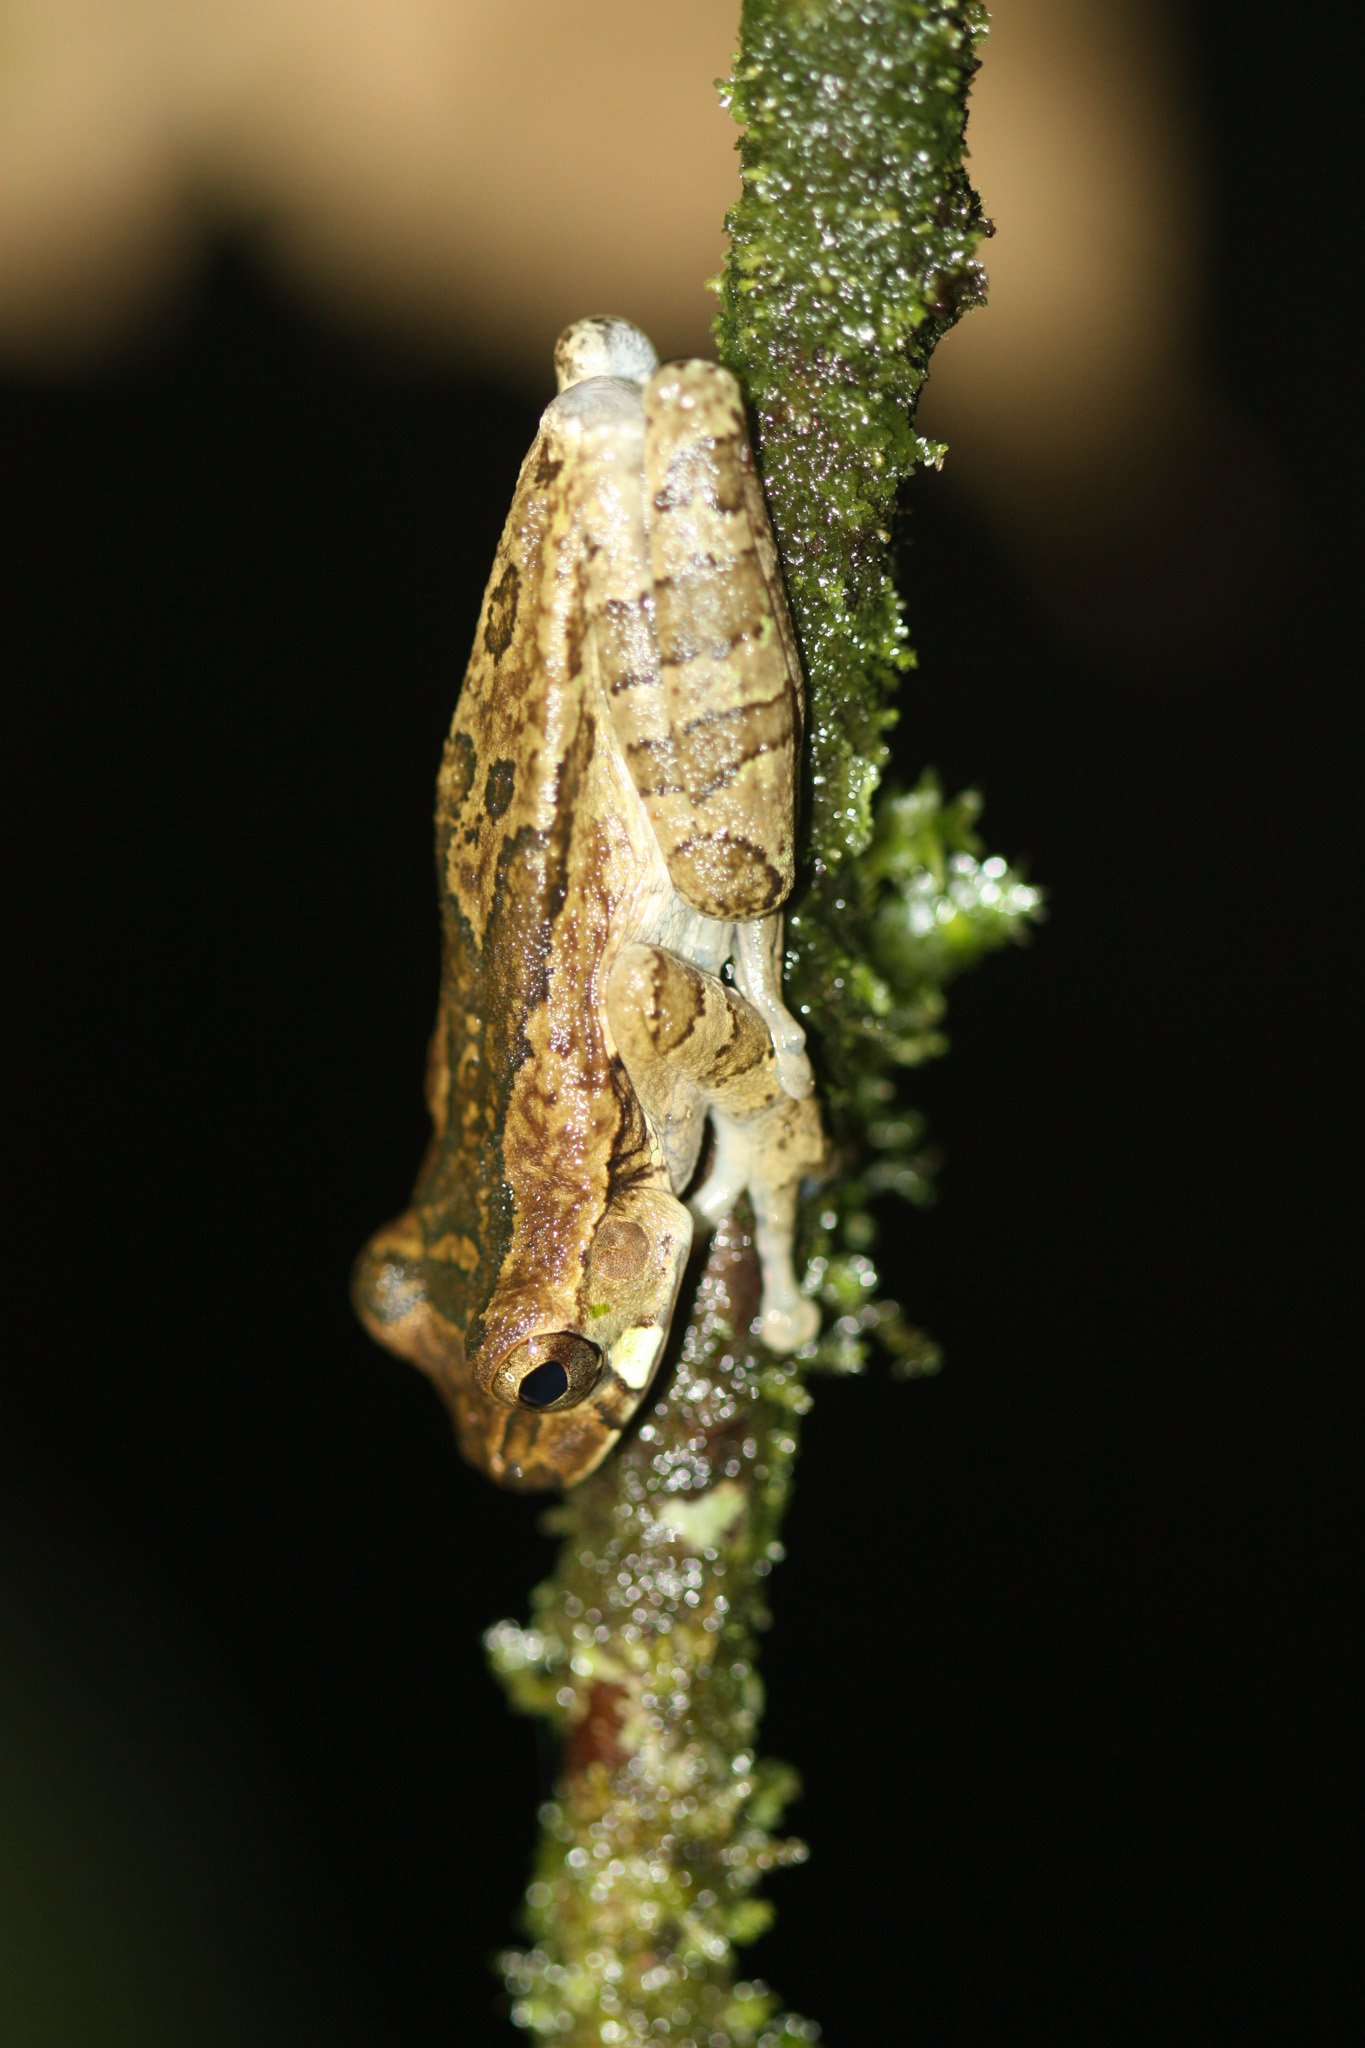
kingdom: Animalia
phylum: Chordata
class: Amphibia
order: Anura
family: Hylidae
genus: Smilisca
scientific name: Smilisca manisorum
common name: Masked tree frog
